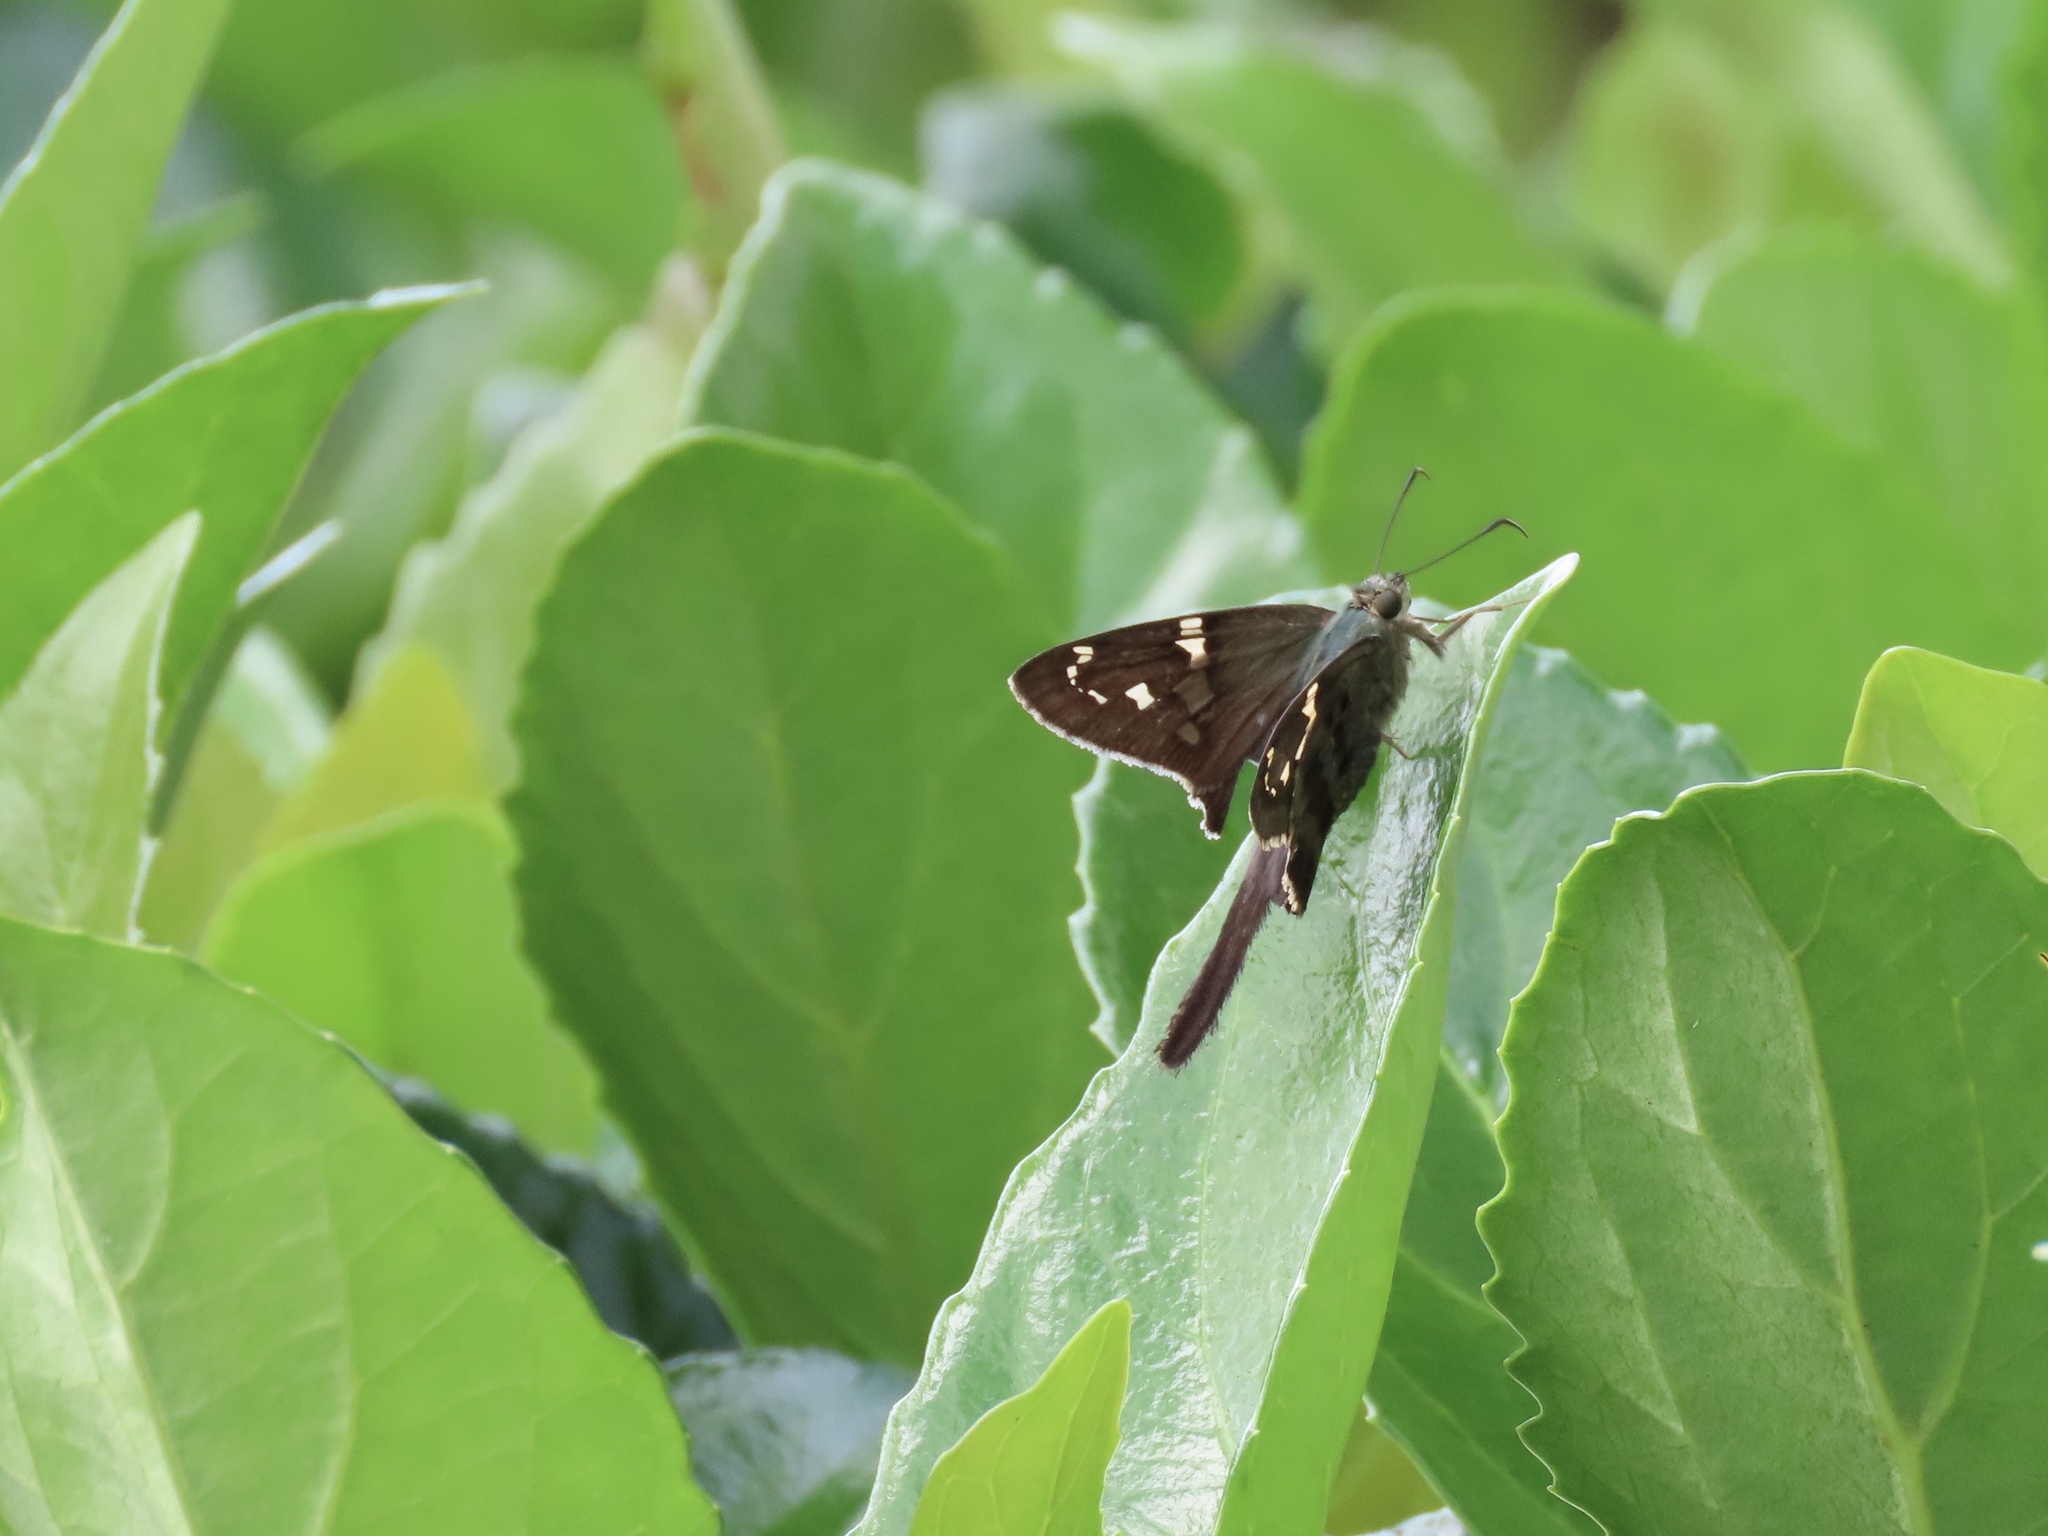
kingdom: Animalia
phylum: Arthropoda
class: Insecta
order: Lepidoptera
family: Hesperiidae
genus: Urbanus
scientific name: Urbanus proteus
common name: Long-tailed skipper
